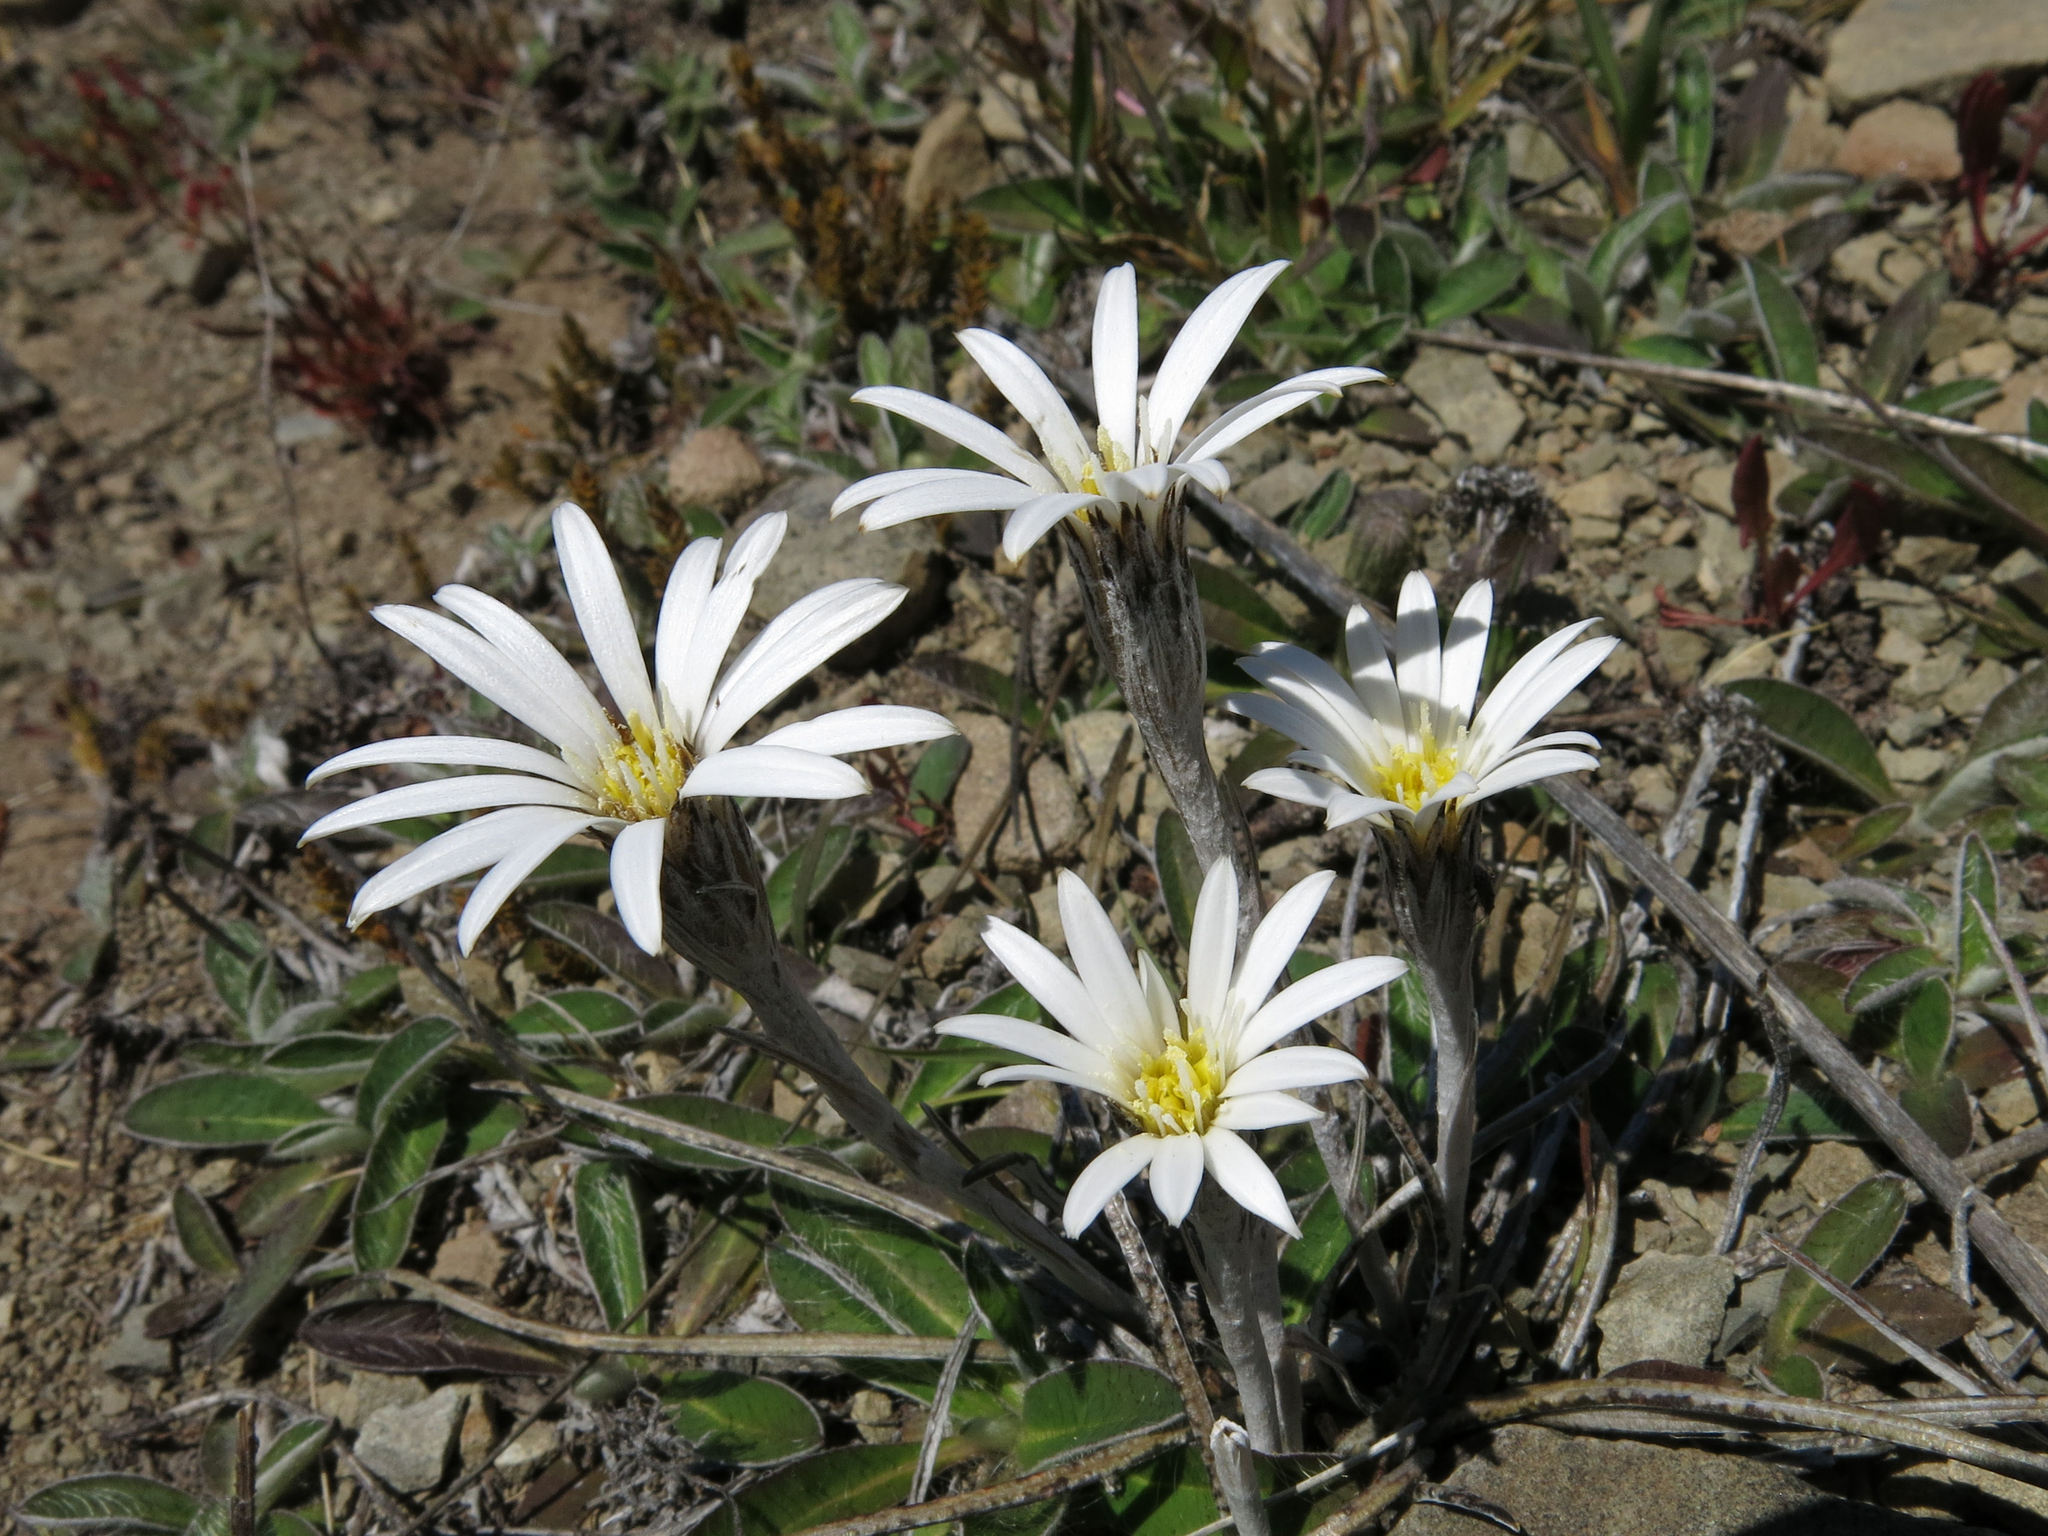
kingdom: Plantae
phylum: Tracheophyta
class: Magnoliopsida
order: Asterales
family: Asteraceae
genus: Celmisia
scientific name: Celmisia gracilenta
